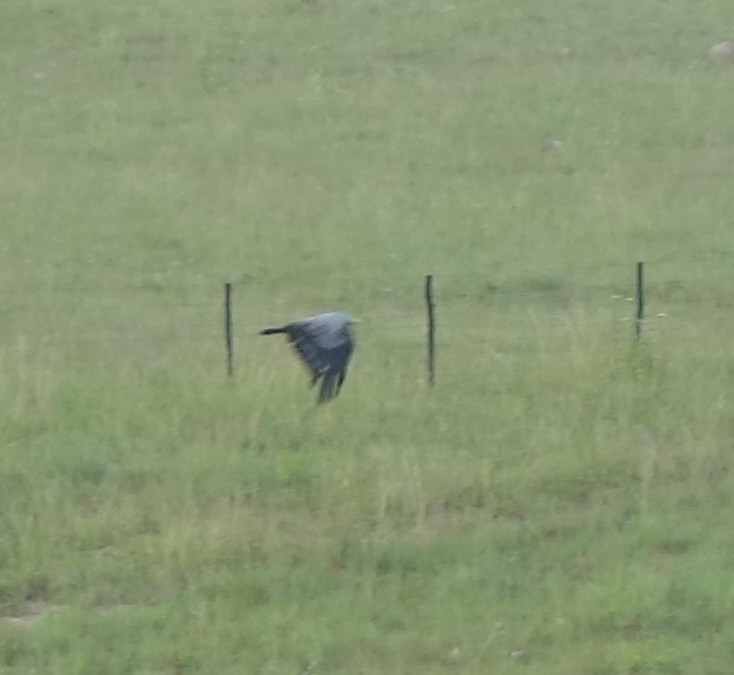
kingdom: Animalia
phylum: Chordata
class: Aves
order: Accipitriformes
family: Accipitridae
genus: Polyboroides
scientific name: Polyboroides typus
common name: African harrier-hawk
